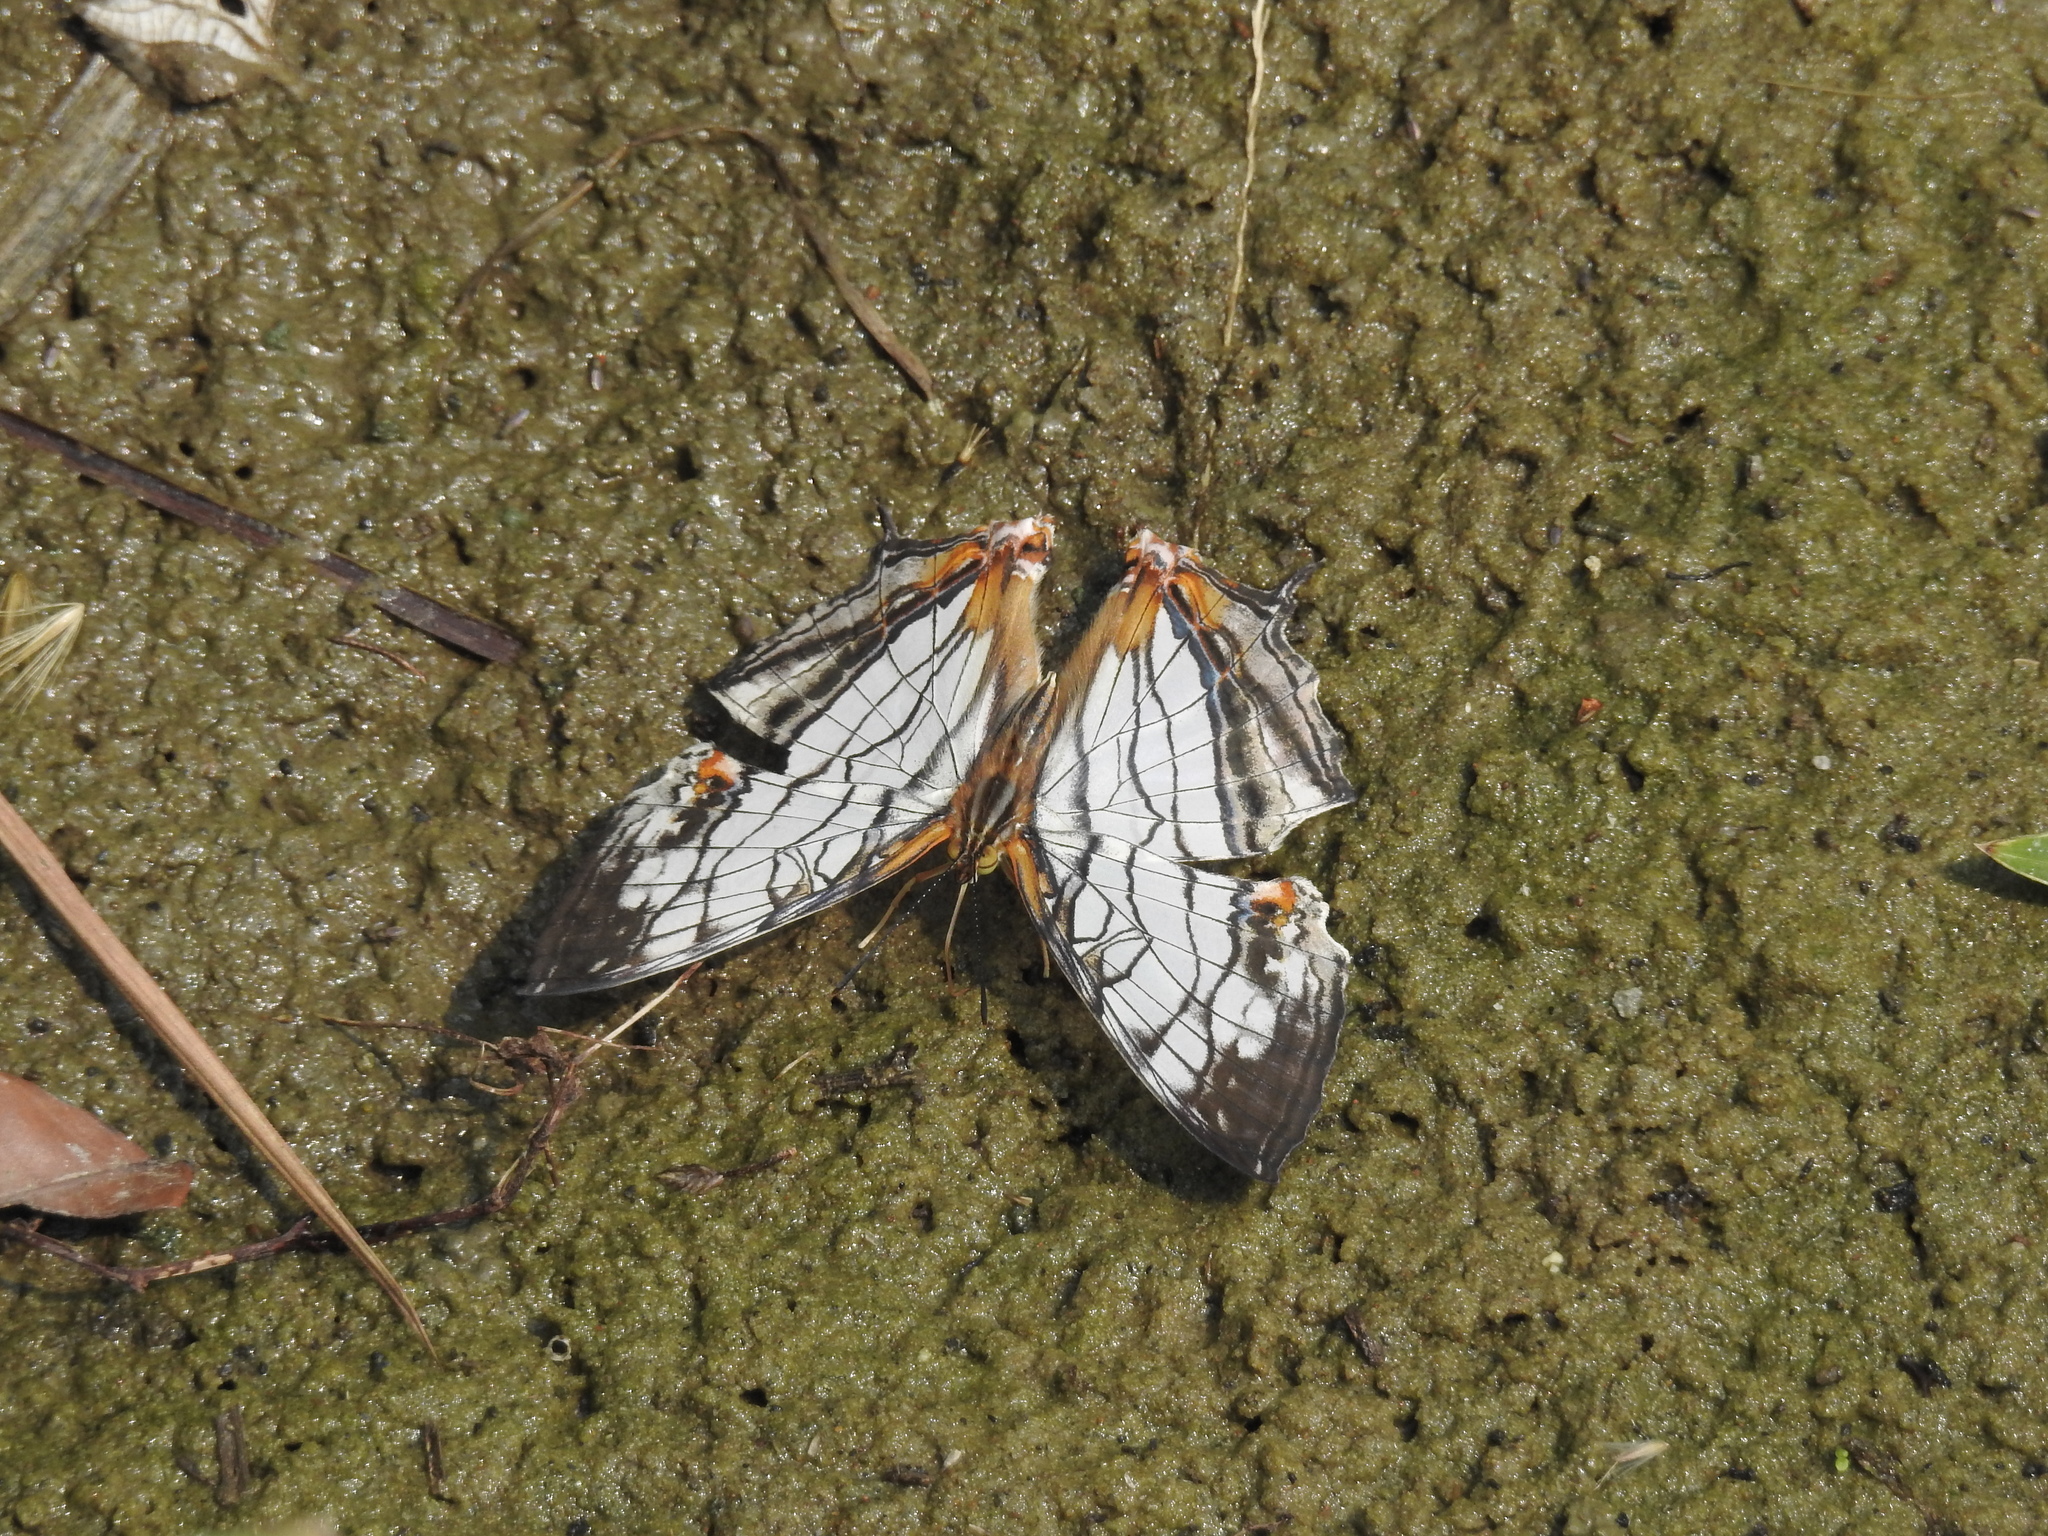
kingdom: Animalia
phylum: Arthropoda
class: Insecta
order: Lepidoptera
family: Nymphalidae
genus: Cyrestis
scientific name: Cyrestis thyodamas
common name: Common mapwing
